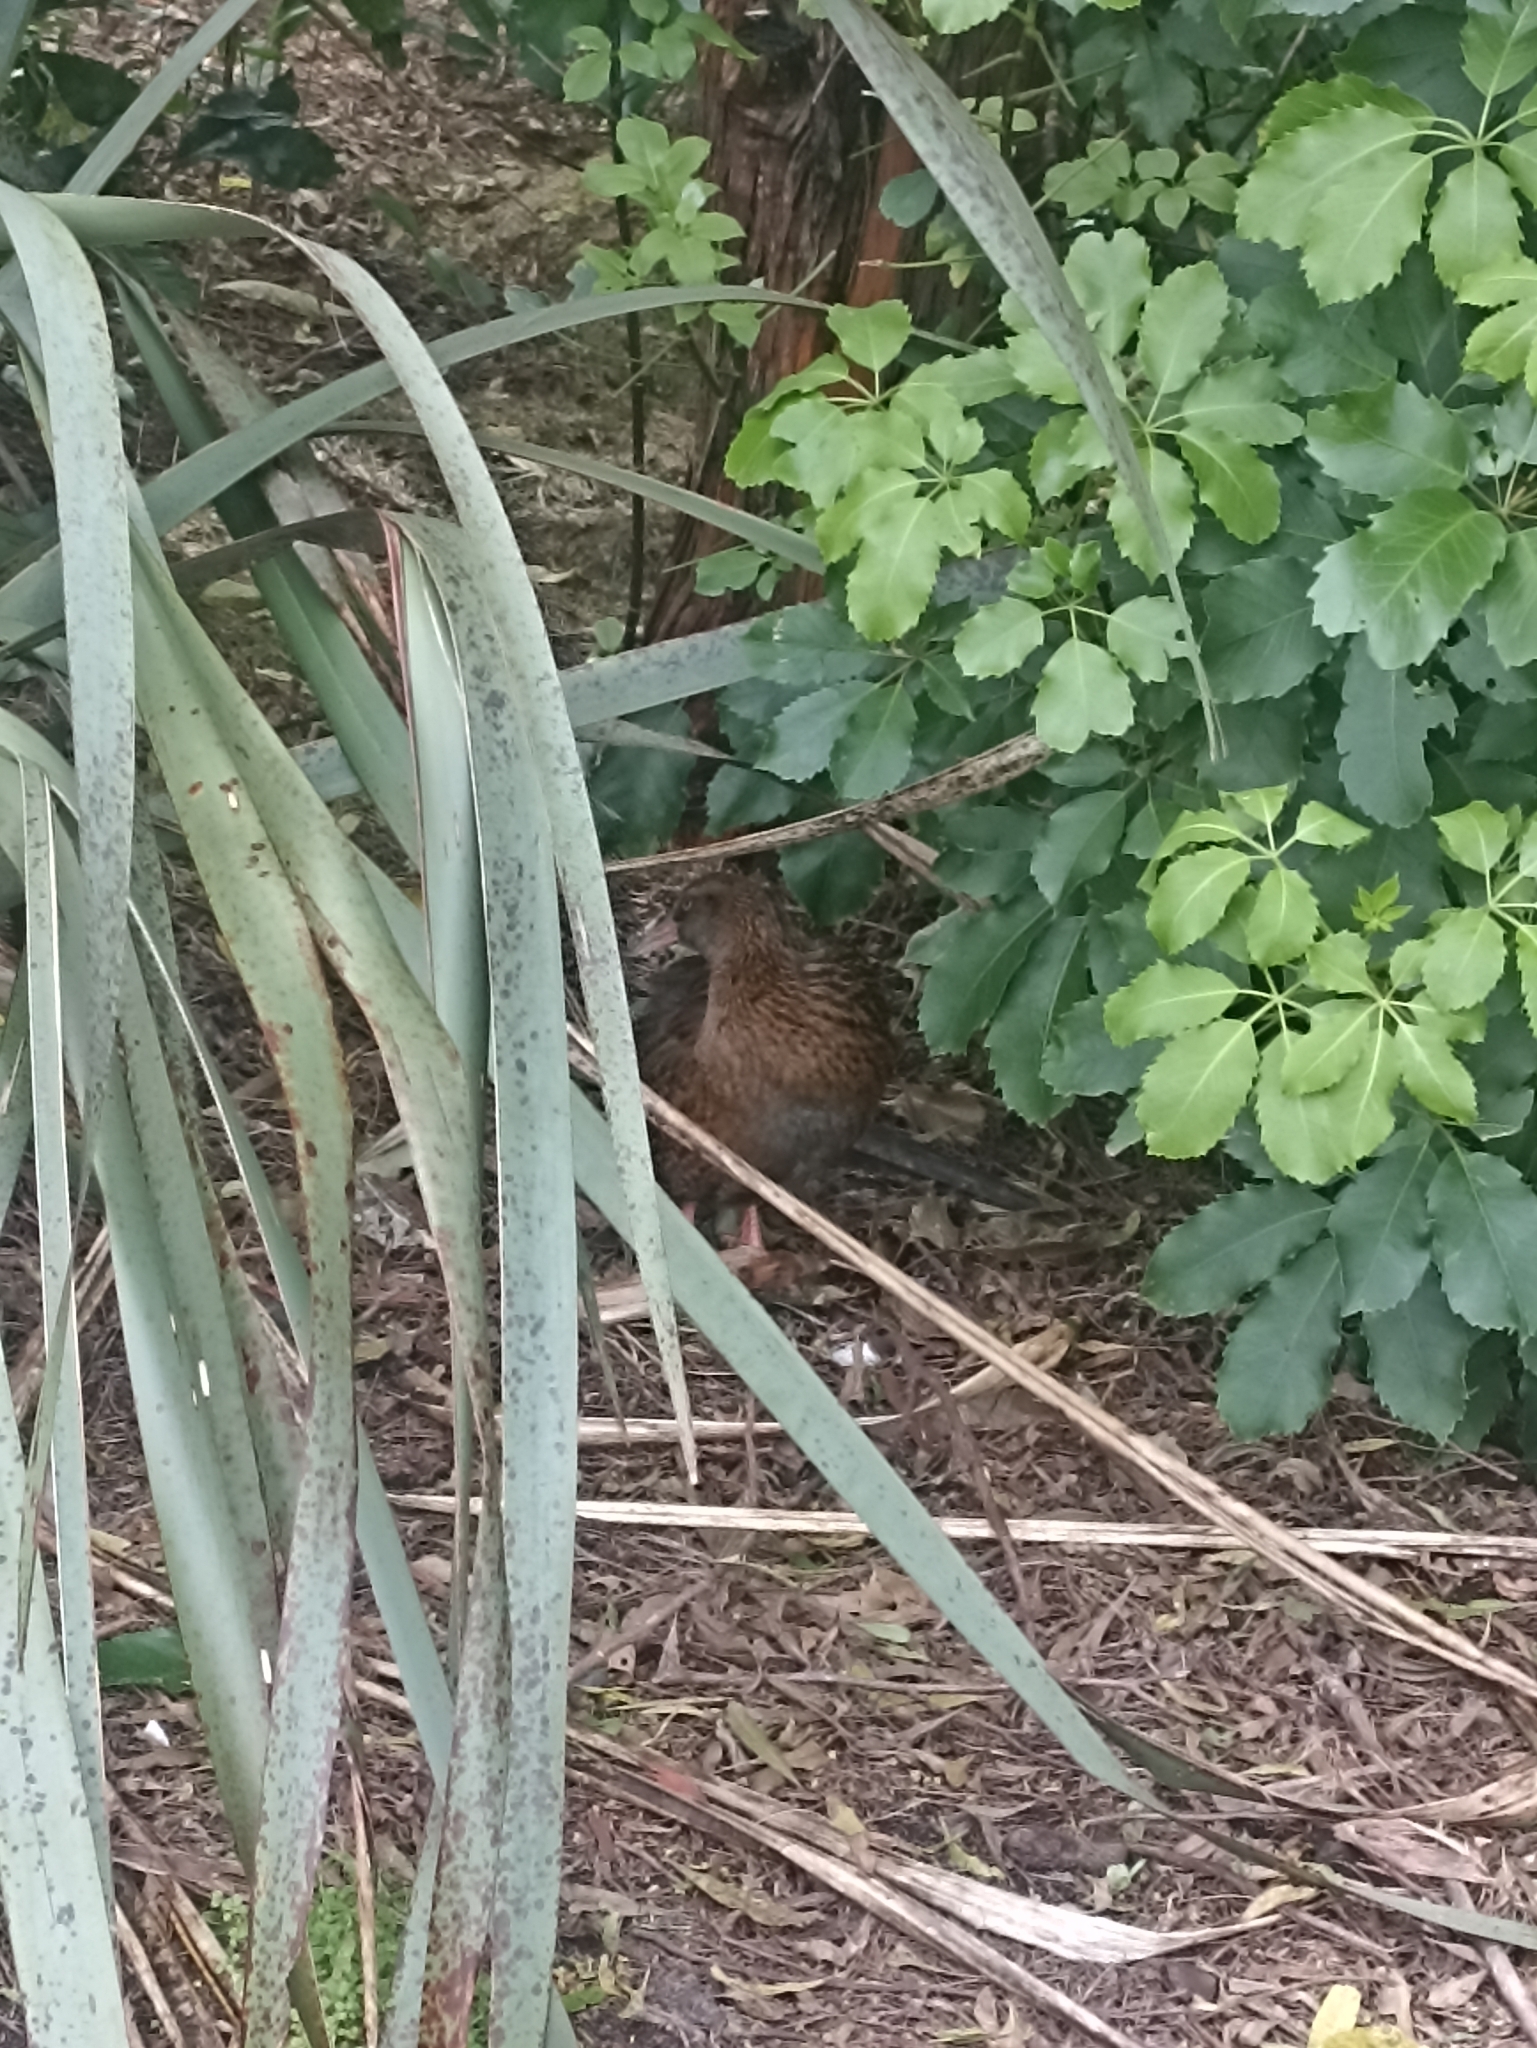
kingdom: Animalia
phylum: Chordata
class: Aves
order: Gruiformes
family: Rallidae
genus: Gallirallus
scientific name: Gallirallus australis
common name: Weka
